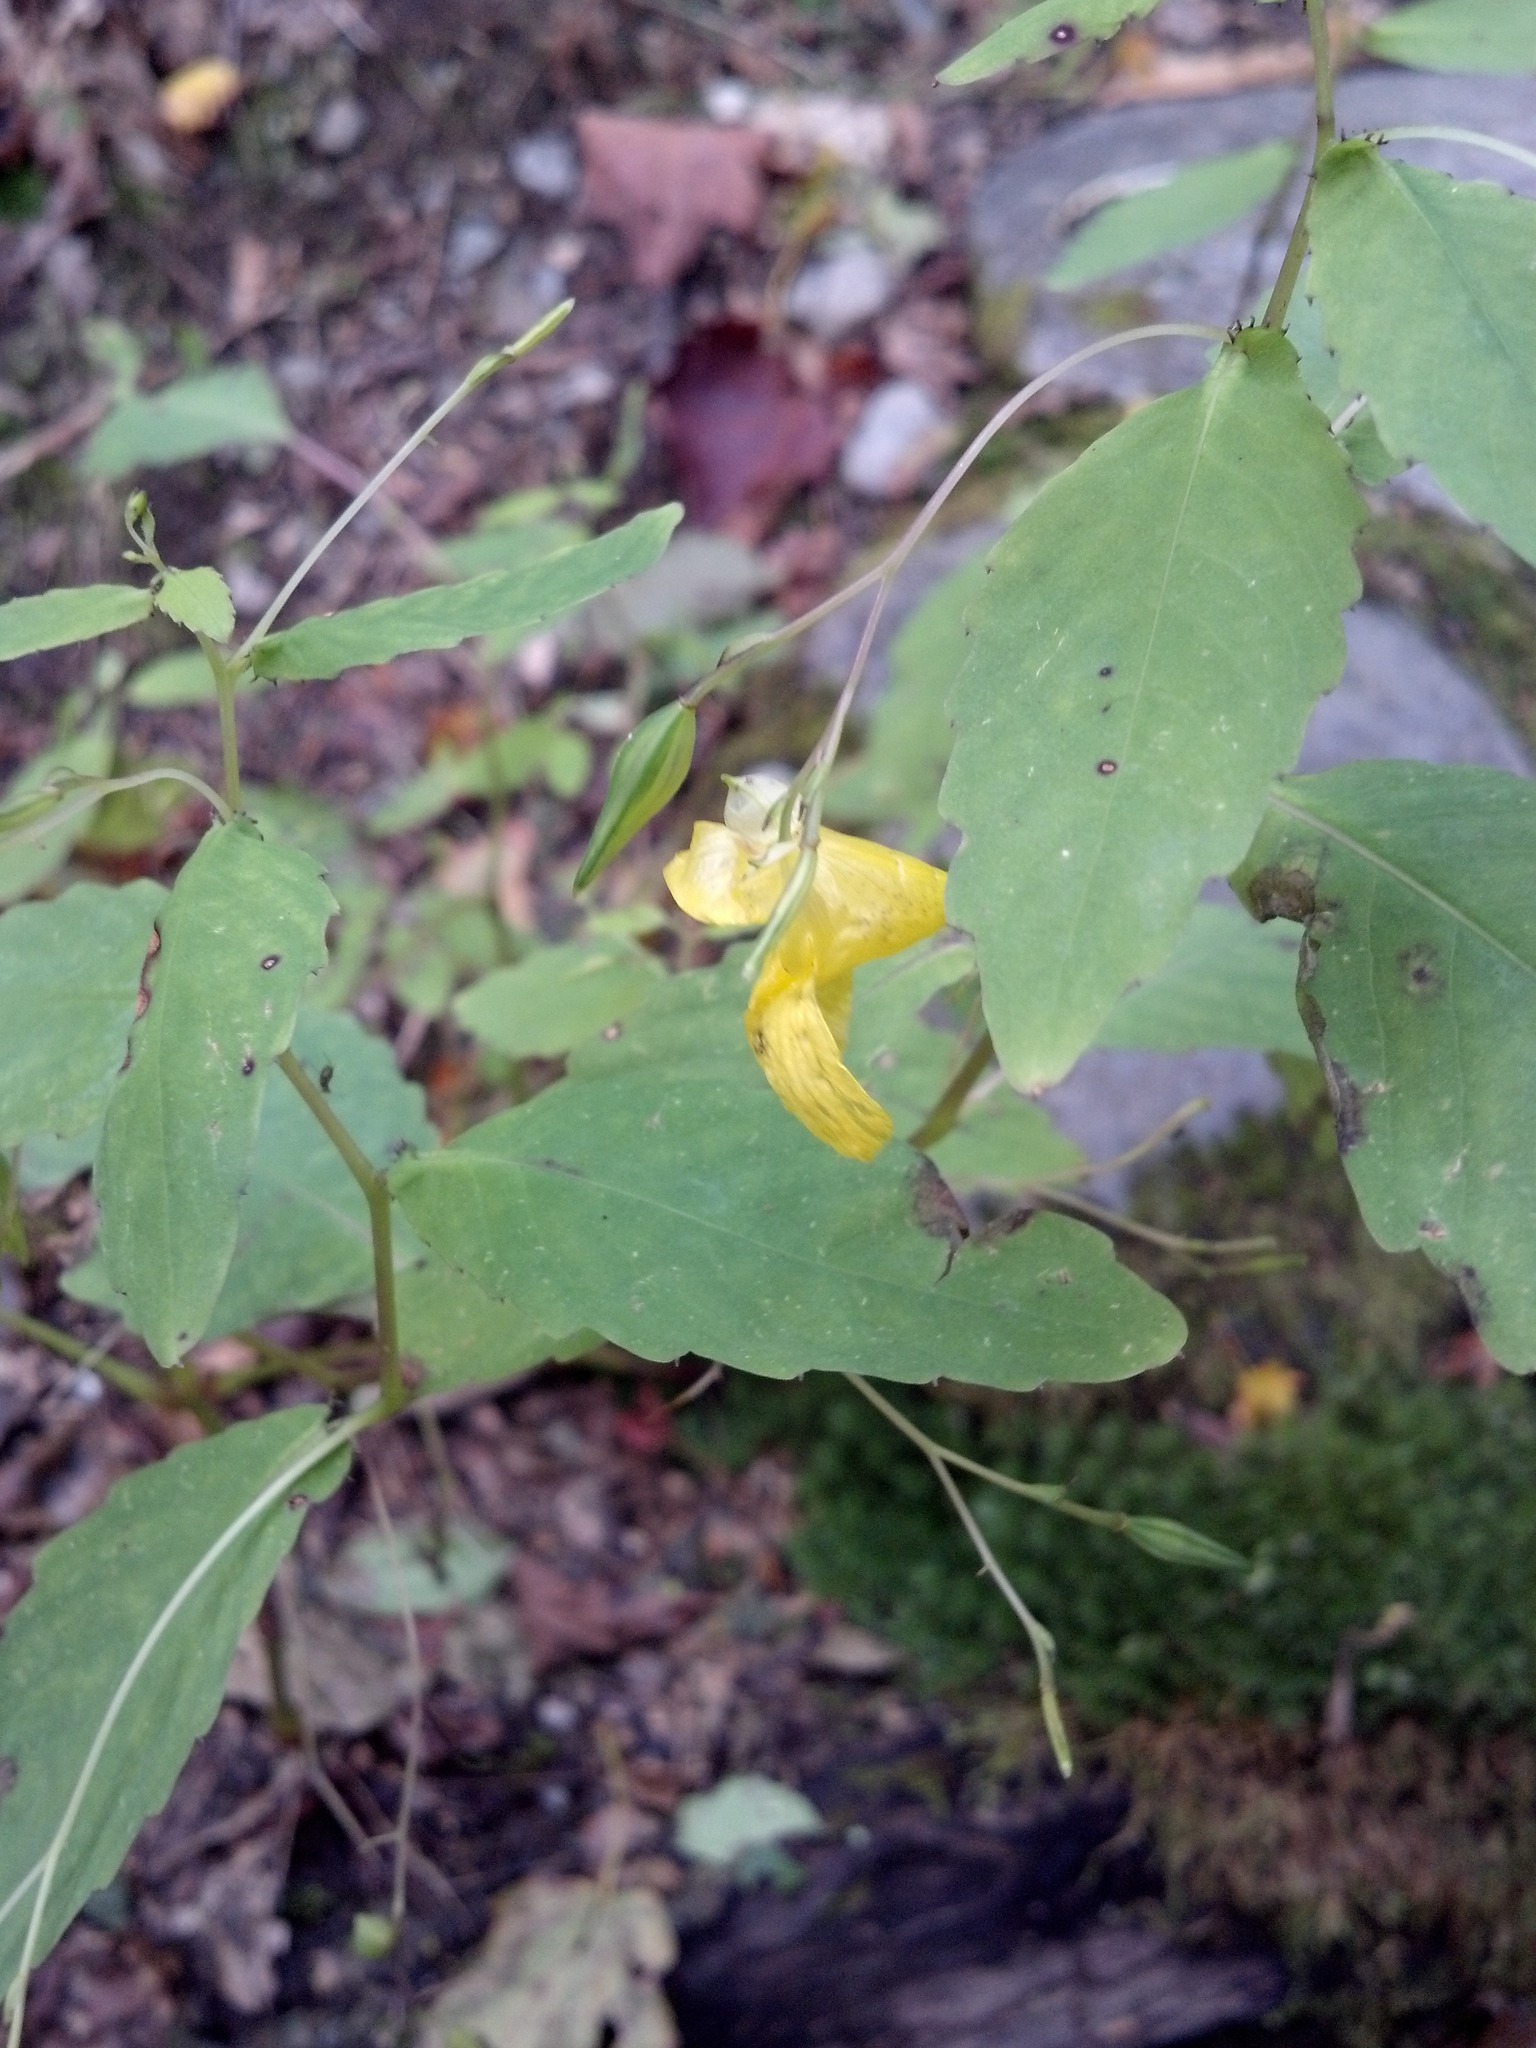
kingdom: Plantae
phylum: Tracheophyta
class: Magnoliopsida
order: Ericales
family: Balsaminaceae
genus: Impatiens
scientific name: Impatiens pallida
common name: Pale snapweed
